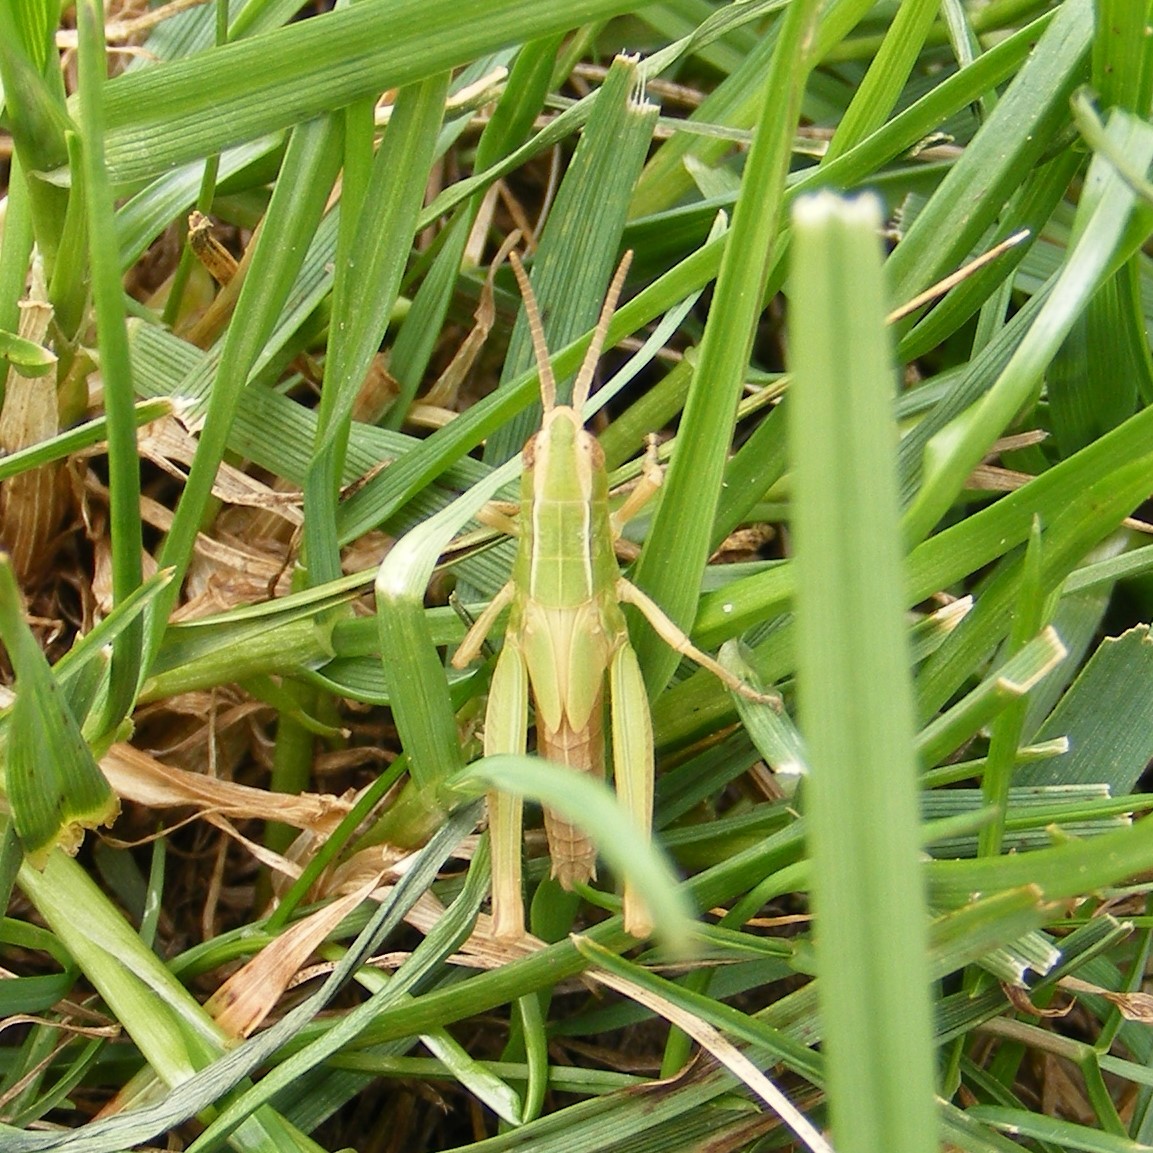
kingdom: Animalia
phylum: Arthropoda
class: Insecta
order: Orthoptera
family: Acrididae
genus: Chorthippus
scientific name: Chorthippus albomarginatus
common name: Lesser marsh grasshopper
